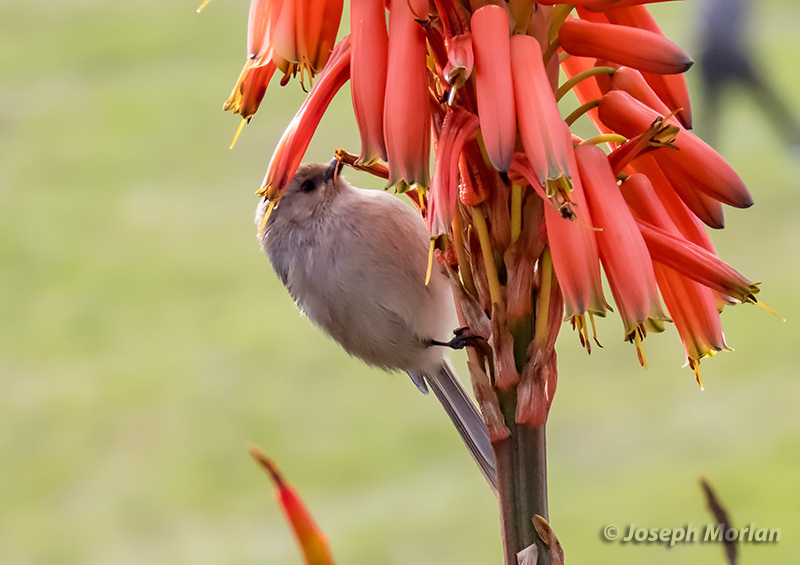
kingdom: Animalia
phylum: Chordata
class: Aves
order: Passeriformes
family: Aegithalidae
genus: Psaltriparus
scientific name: Psaltriparus minimus
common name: American bushtit
